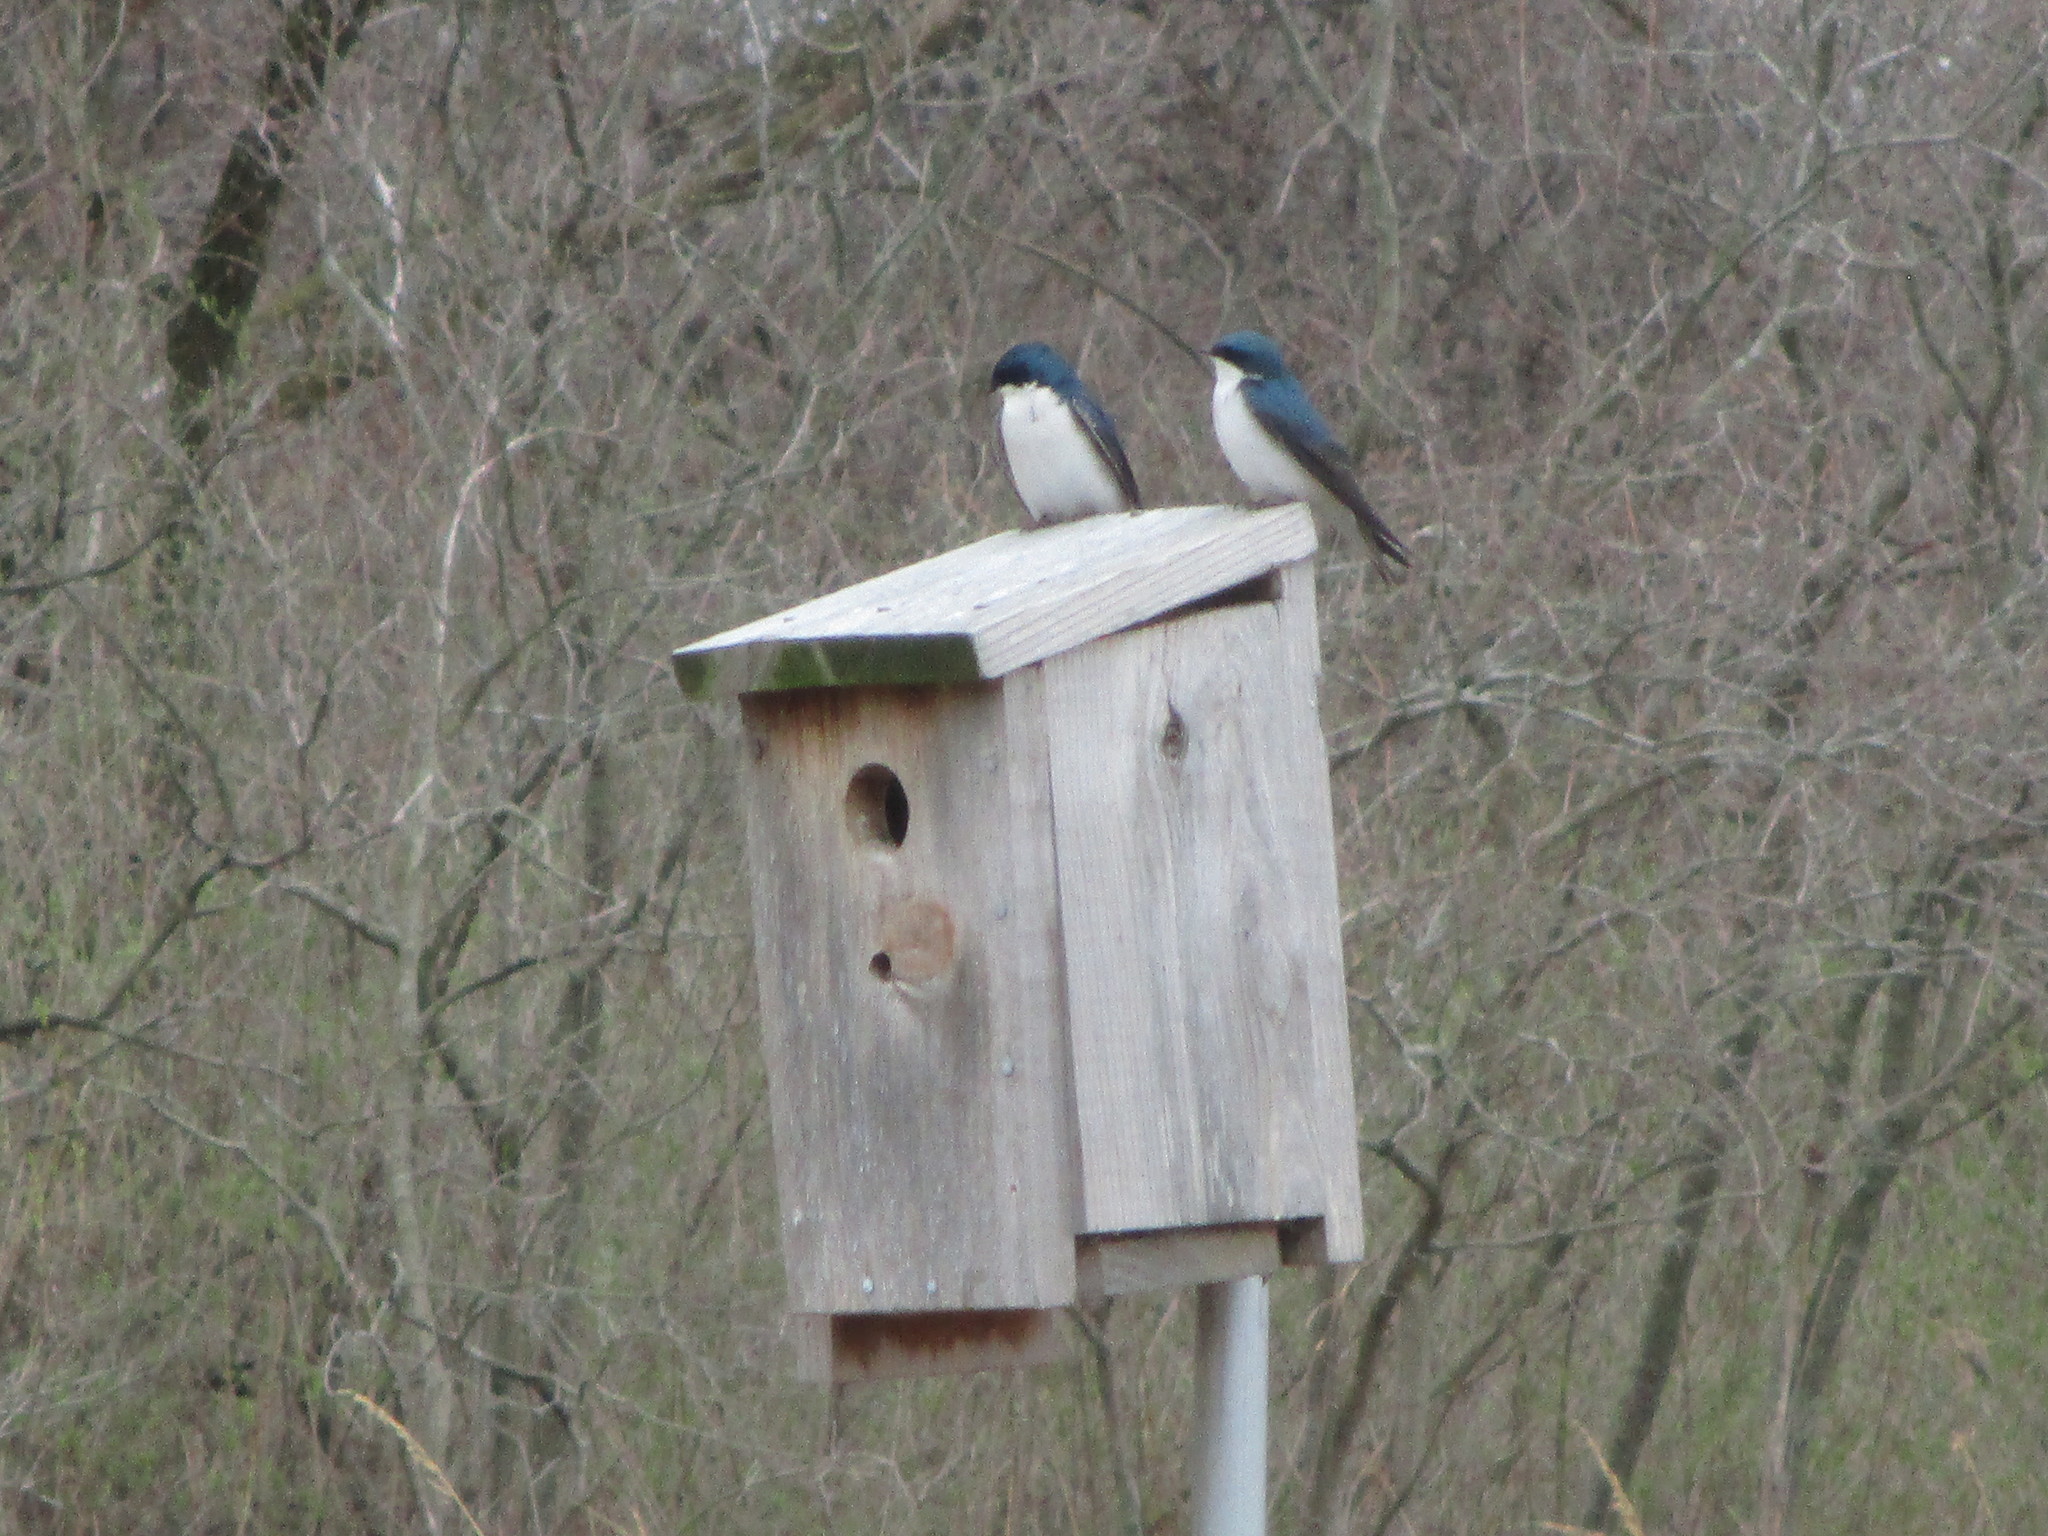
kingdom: Animalia
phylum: Chordata
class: Aves
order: Passeriformes
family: Hirundinidae
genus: Tachycineta
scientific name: Tachycineta bicolor
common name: Tree swallow
